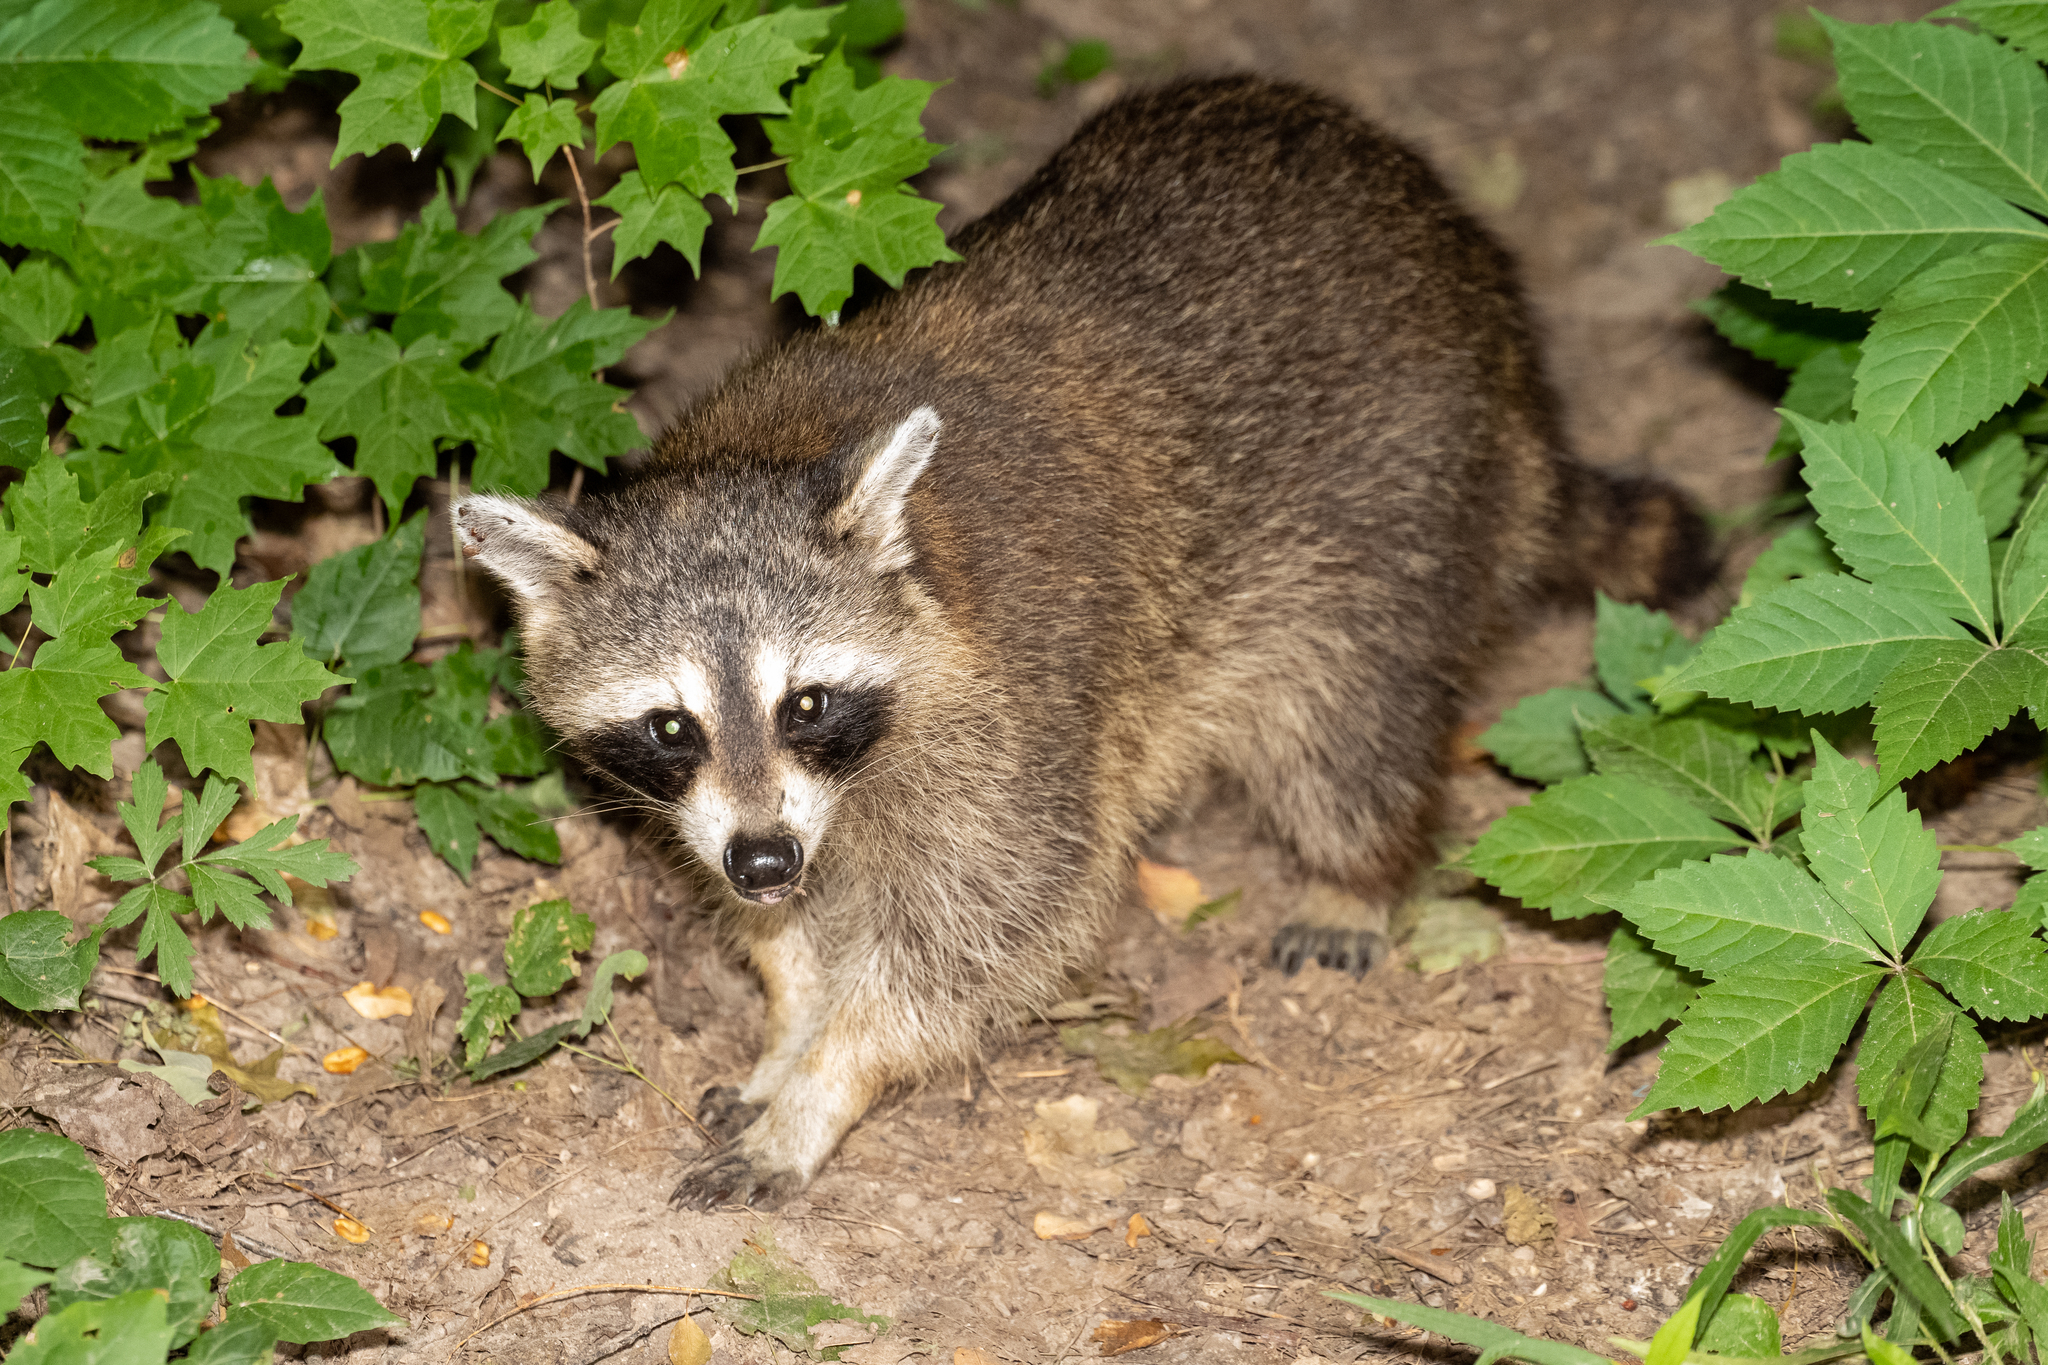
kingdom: Animalia
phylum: Chordata
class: Mammalia
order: Carnivora
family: Procyonidae
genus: Procyon
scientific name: Procyon lotor
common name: Raccoon
